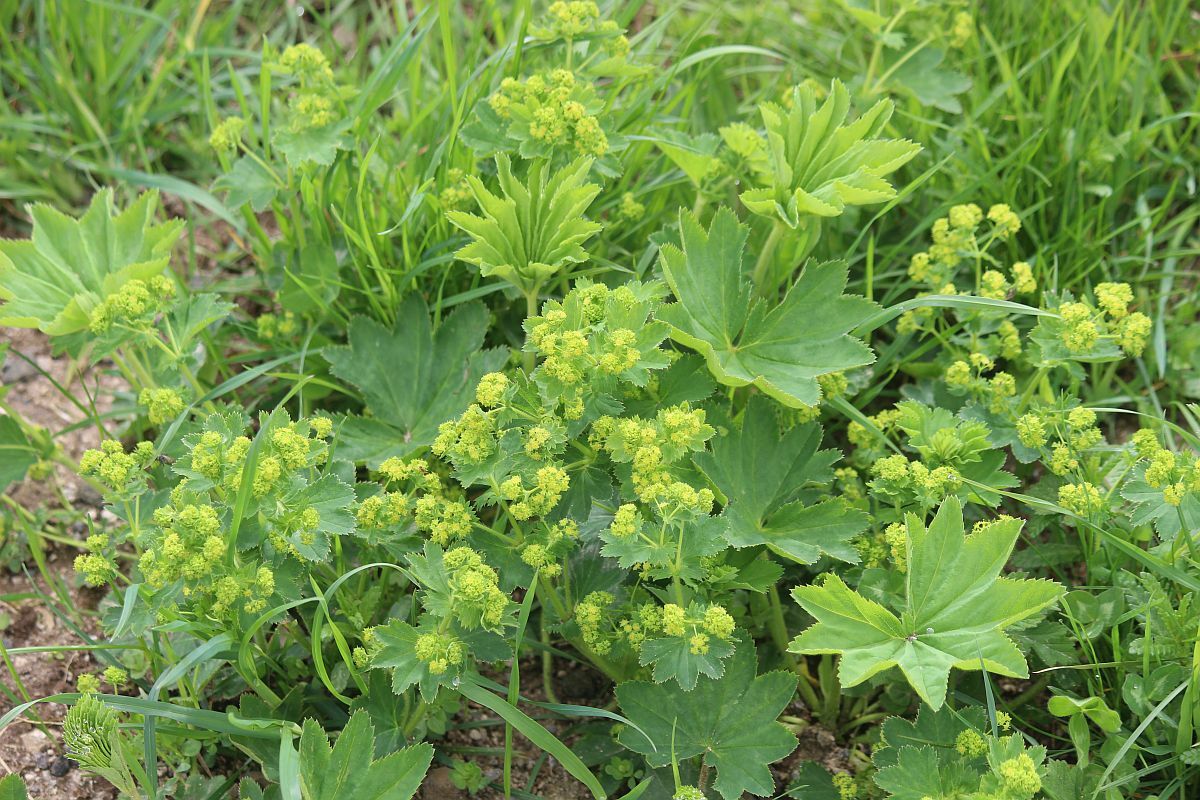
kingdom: Plantae
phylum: Tracheophyta
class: Magnoliopsida
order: Rosales
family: Rosaceae
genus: Alchemilla
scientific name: Alchemilla xanthochlora
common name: Intermediate lady's-mantle
